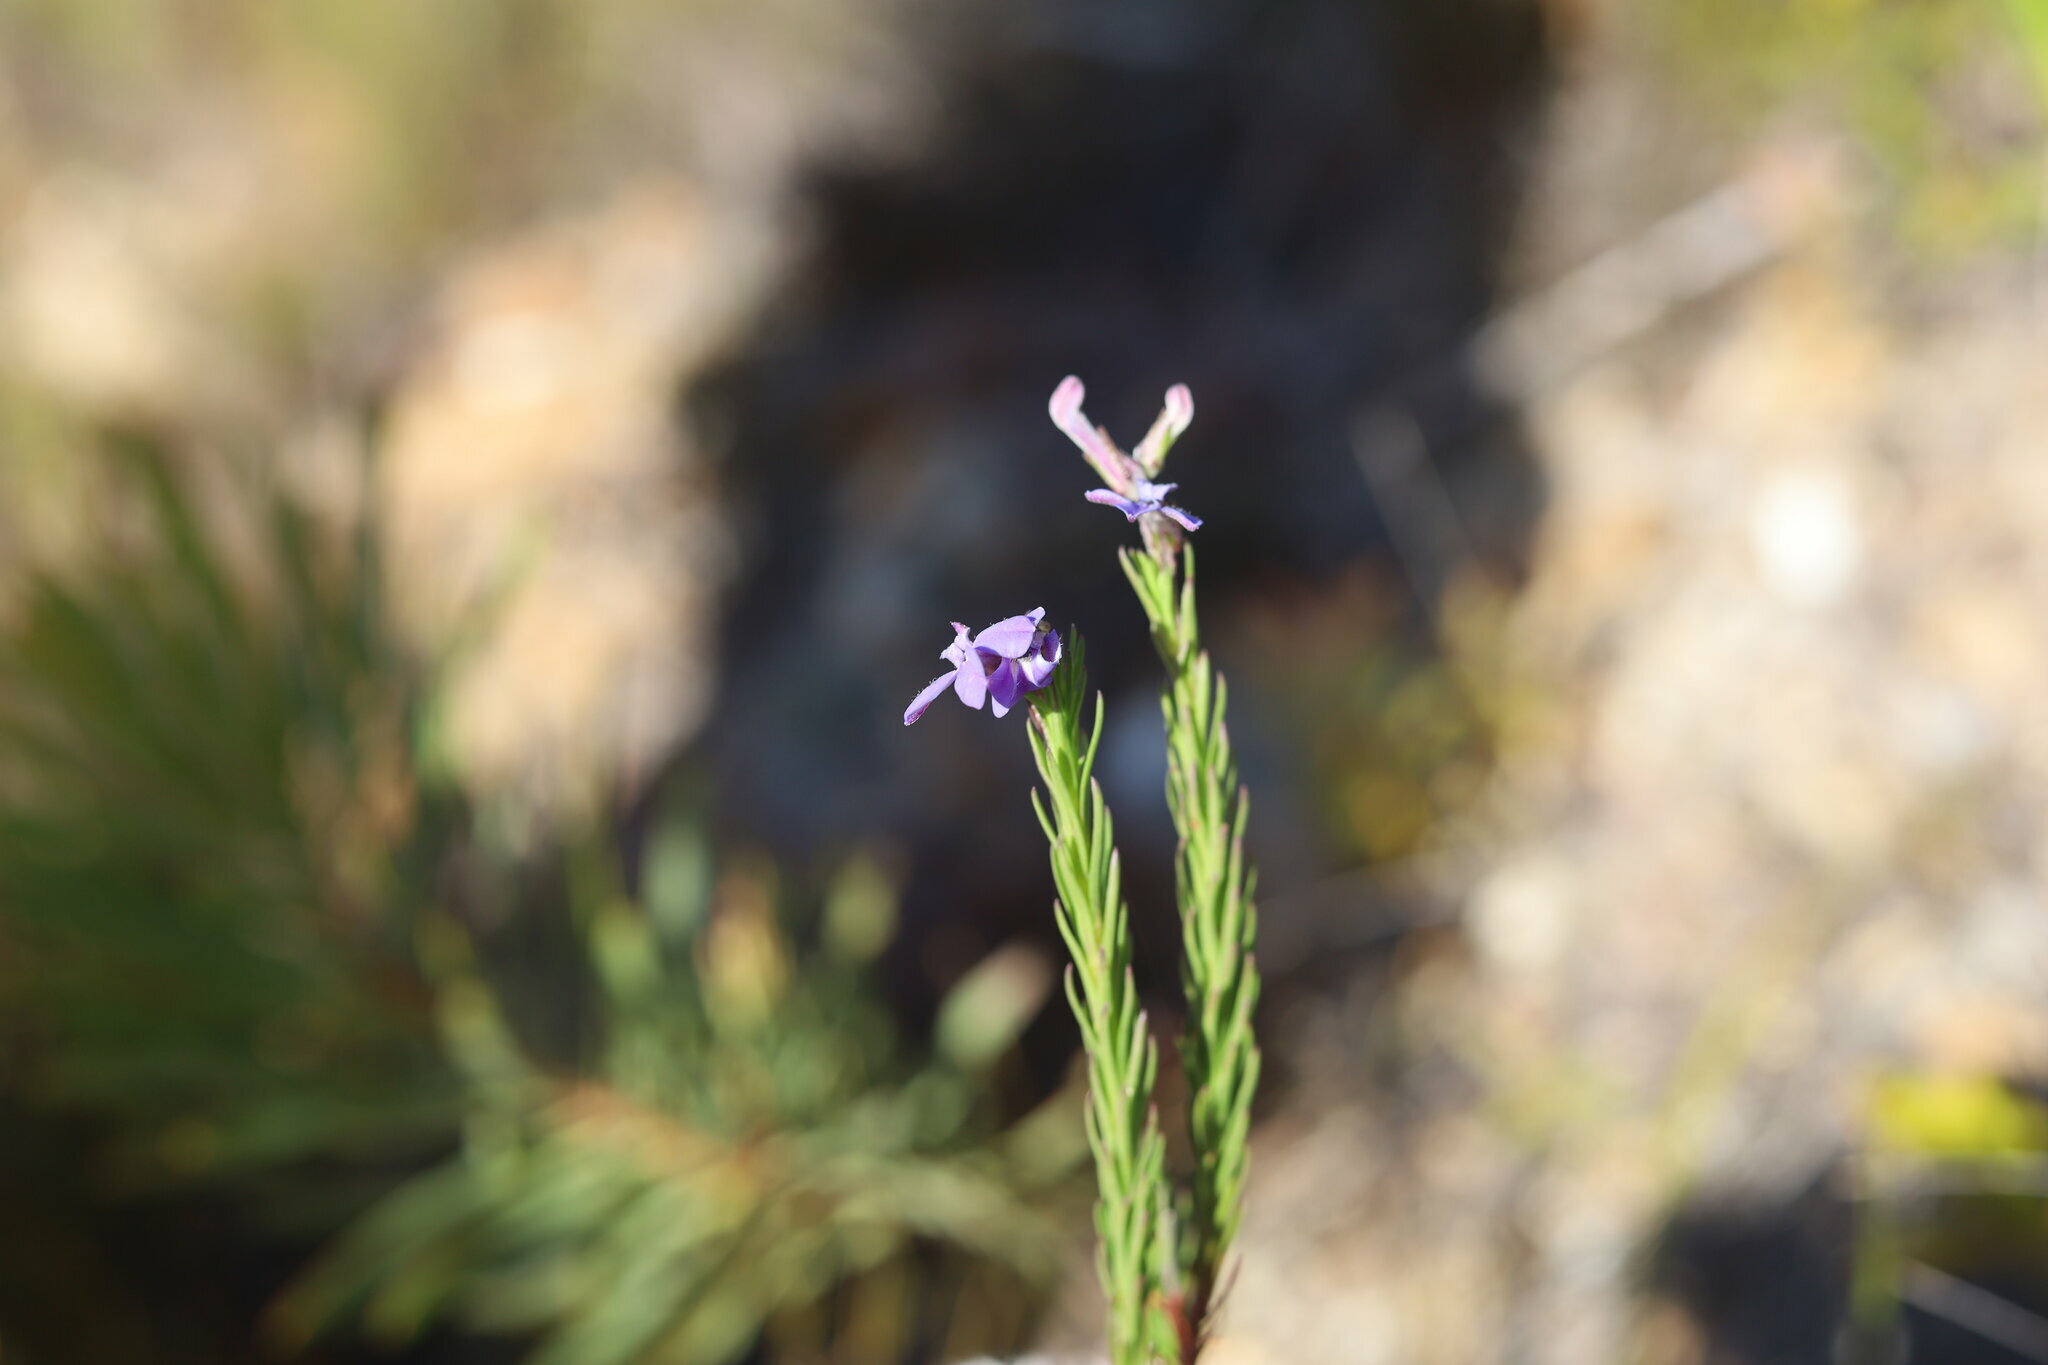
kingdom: Plantae
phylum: Tracheophyta
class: Magnoliopsida
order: Asterales
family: Campanulaceae
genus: Lobelia
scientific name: Lobelia pinifolia
